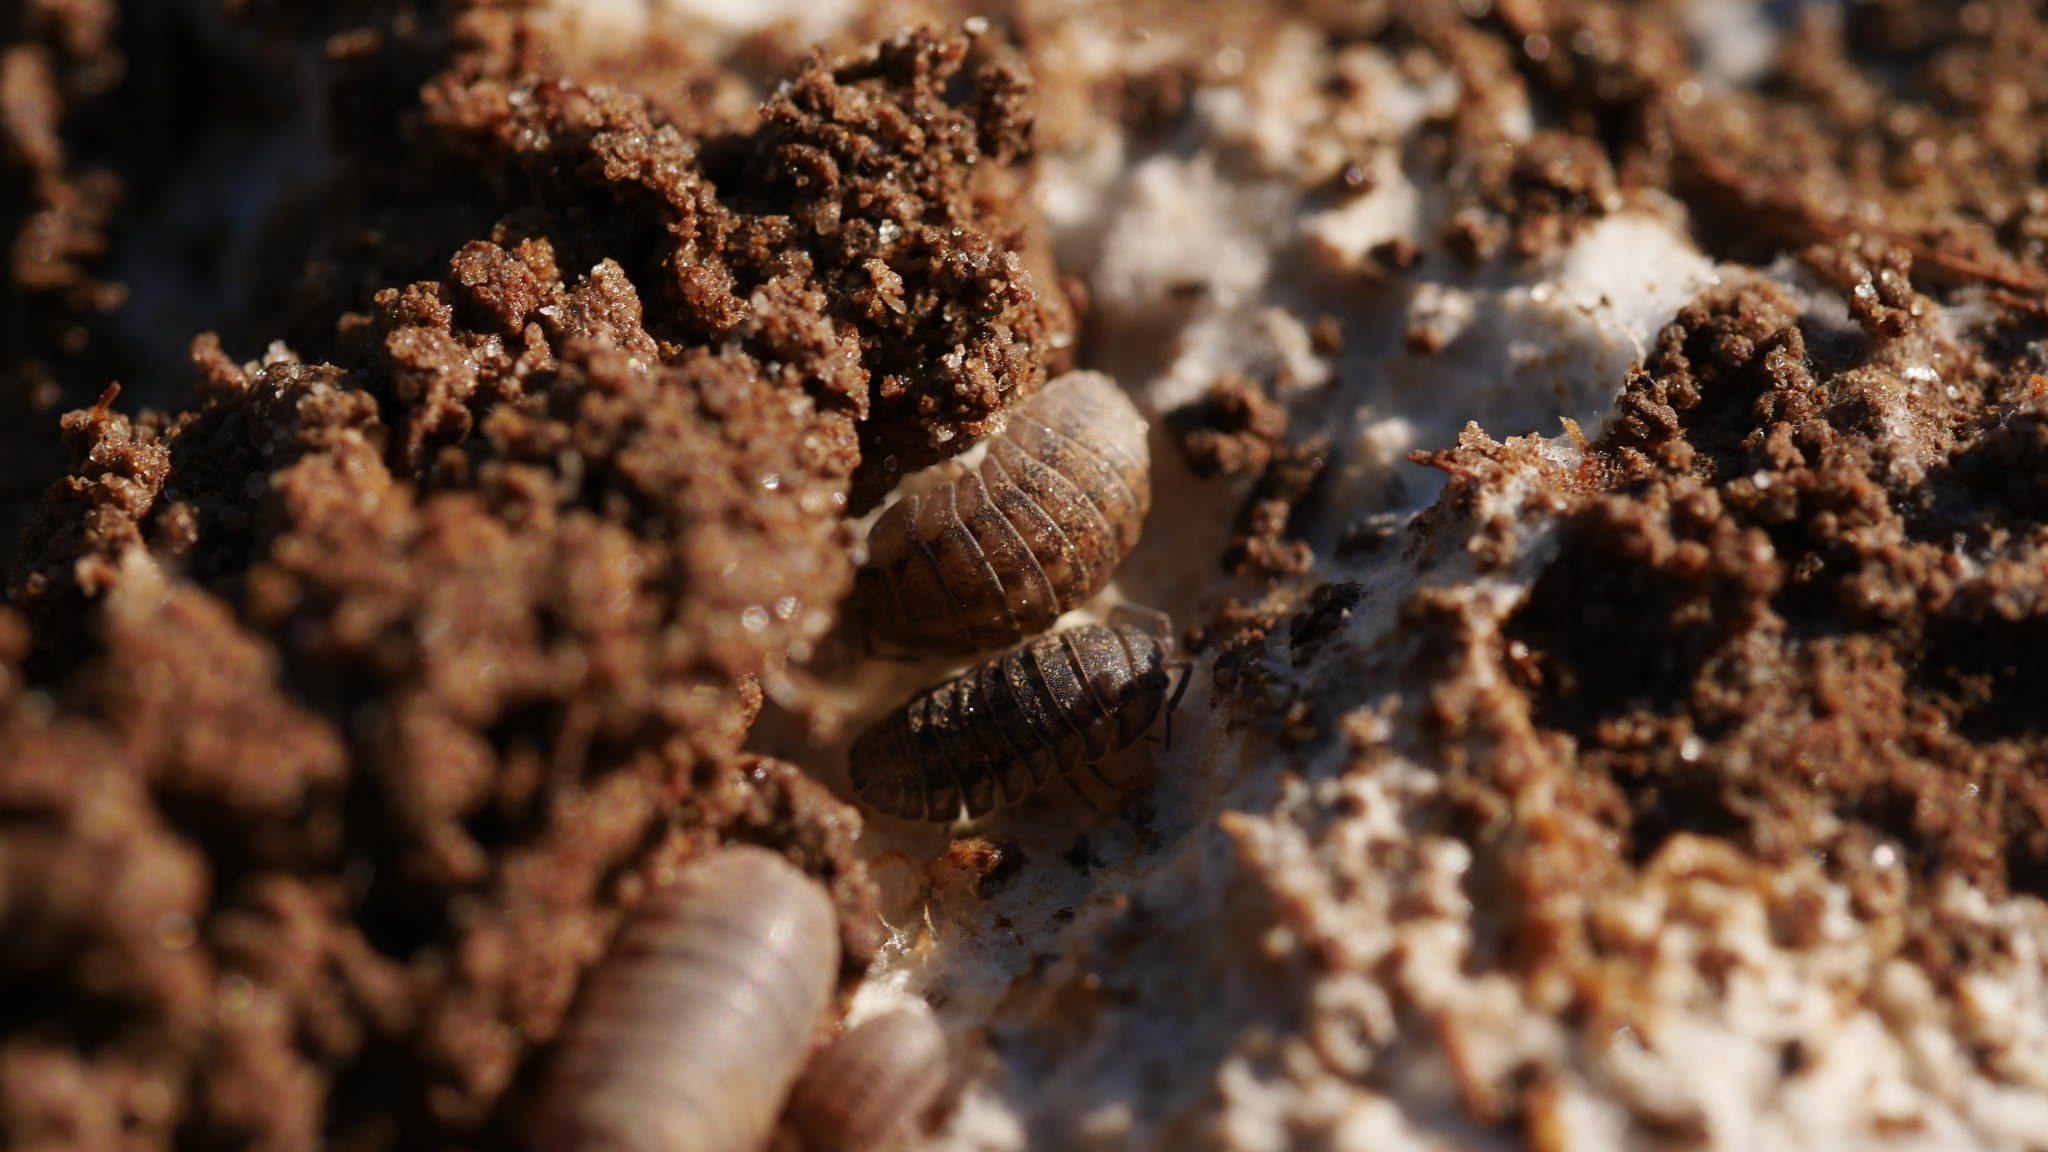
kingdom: Animalia
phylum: Arthropoda
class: Malacostraca
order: Isopoda
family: Armadillidiidae
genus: Armadillidium
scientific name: Armadillidium nasatum
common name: Isopod
